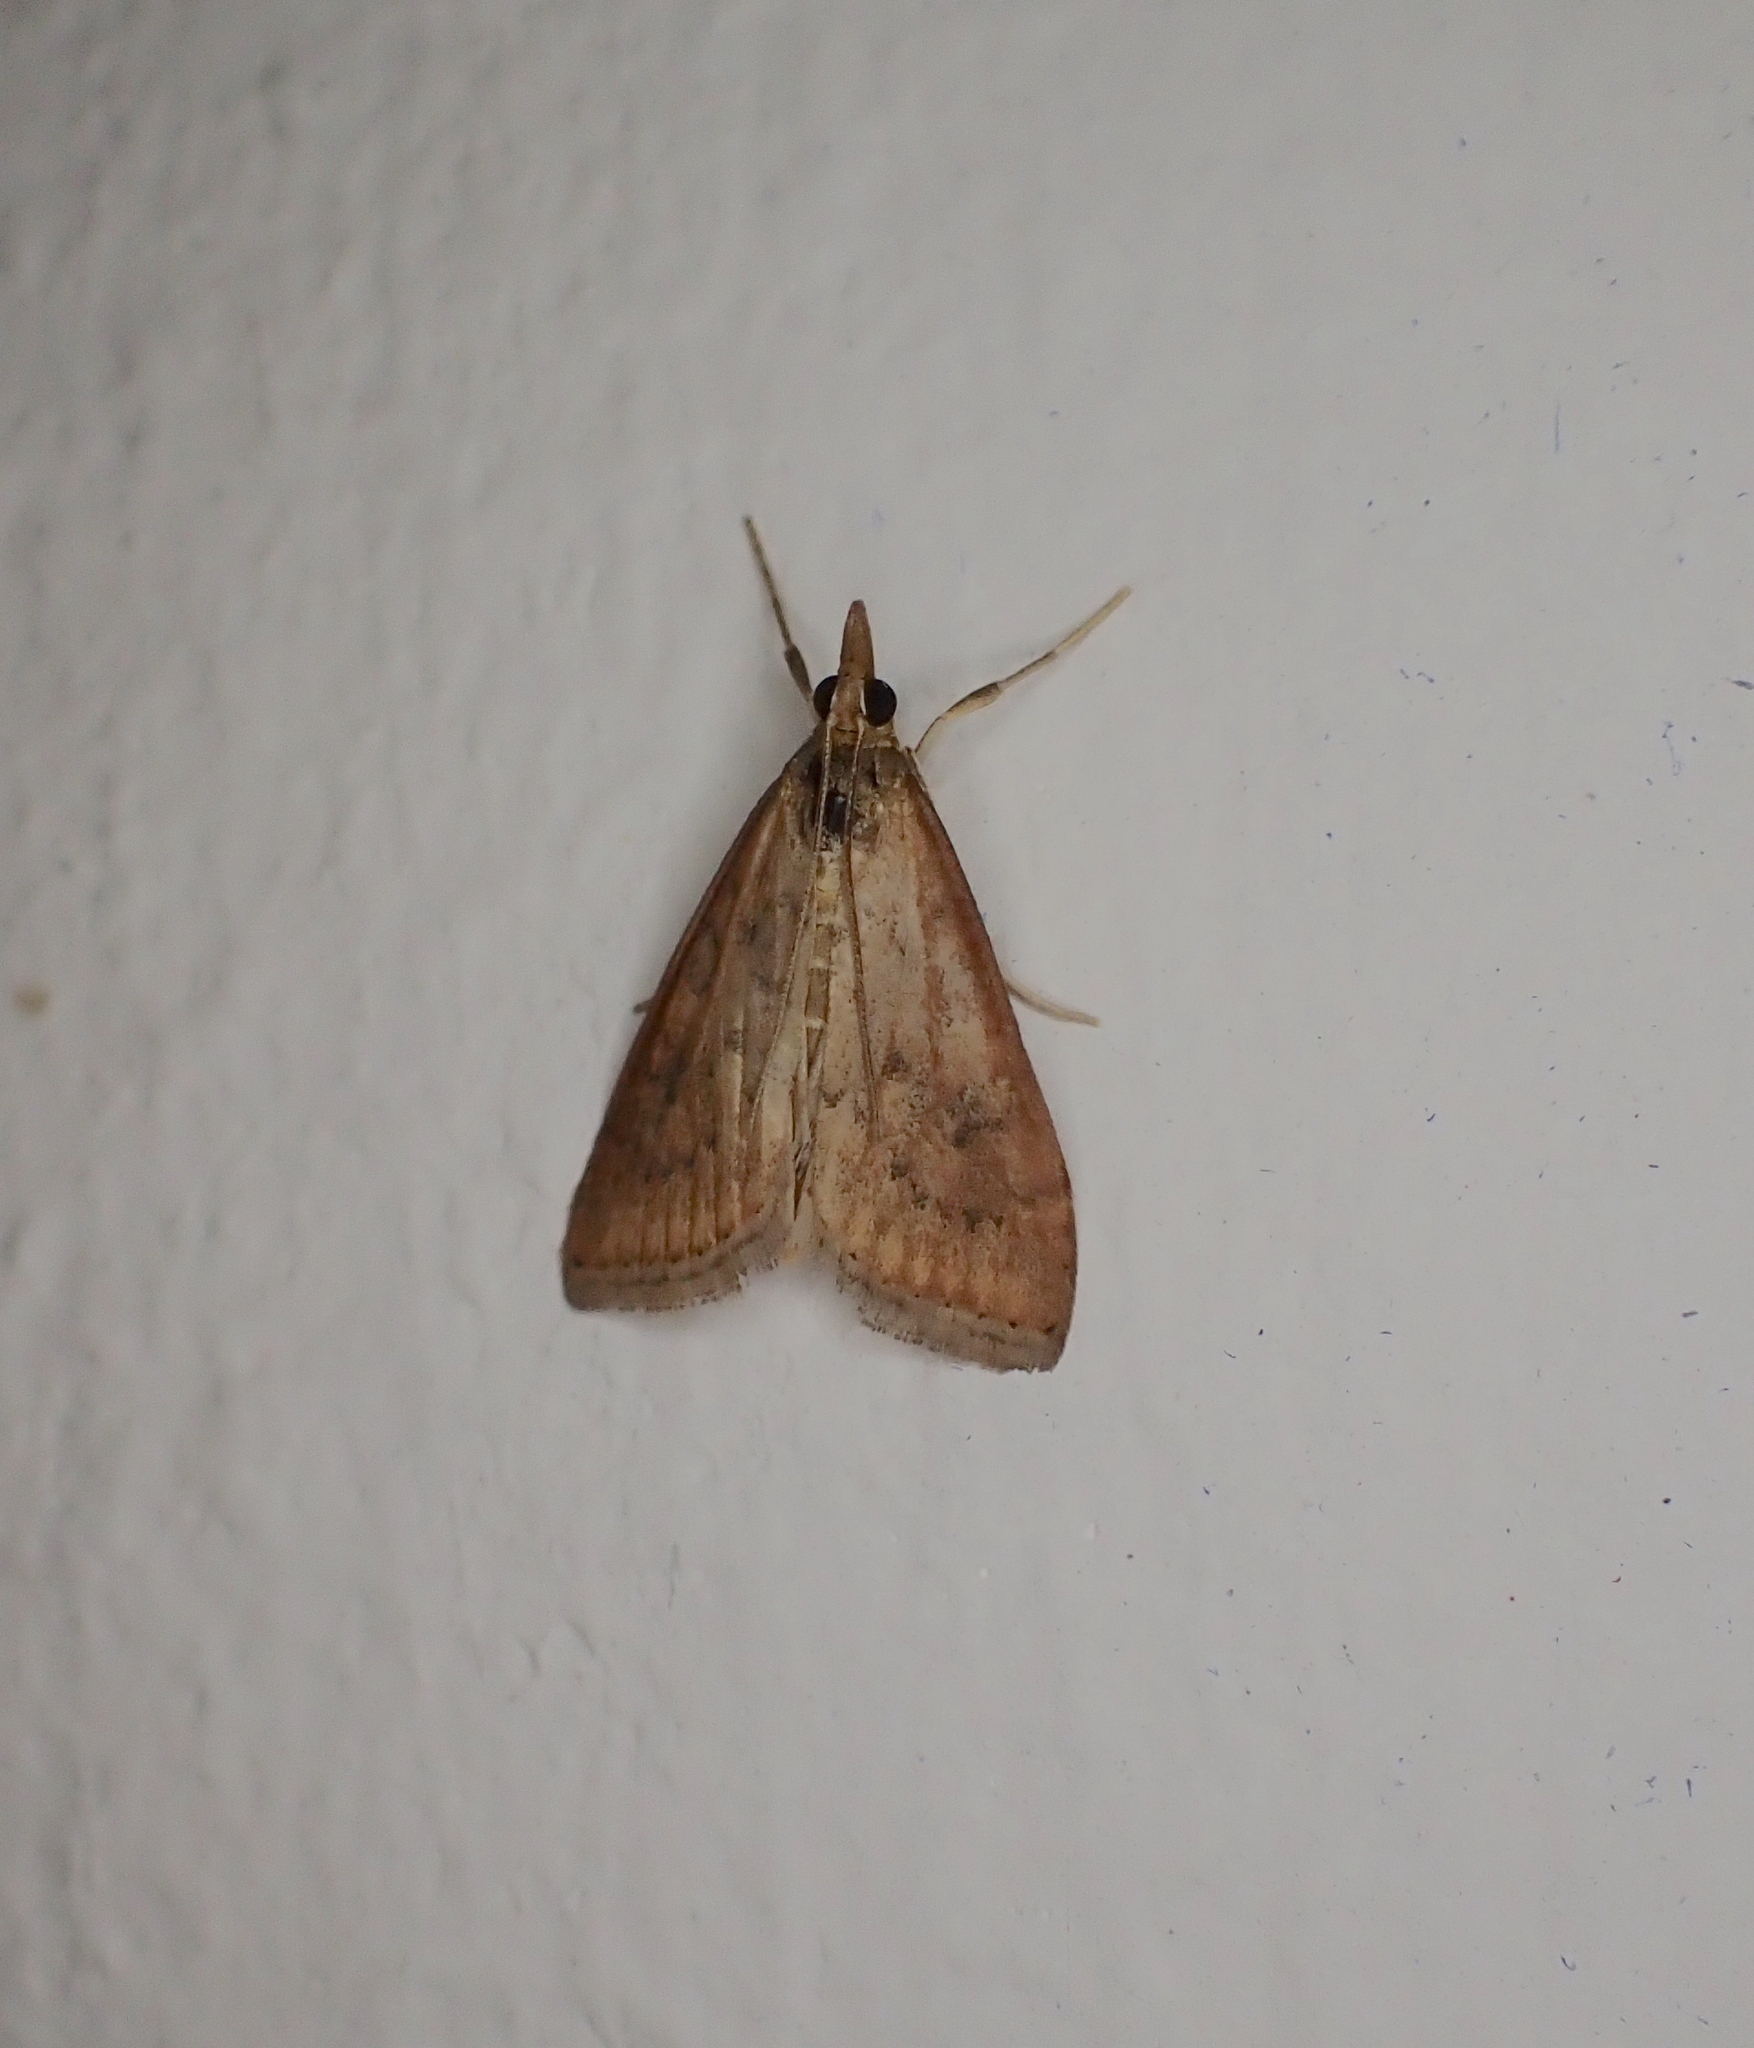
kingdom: Animalia
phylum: Arthropoda
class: Insecta
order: Lepidoptera
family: Crambidae
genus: Udea
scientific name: Udea ferrugalis
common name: Rusty dot
